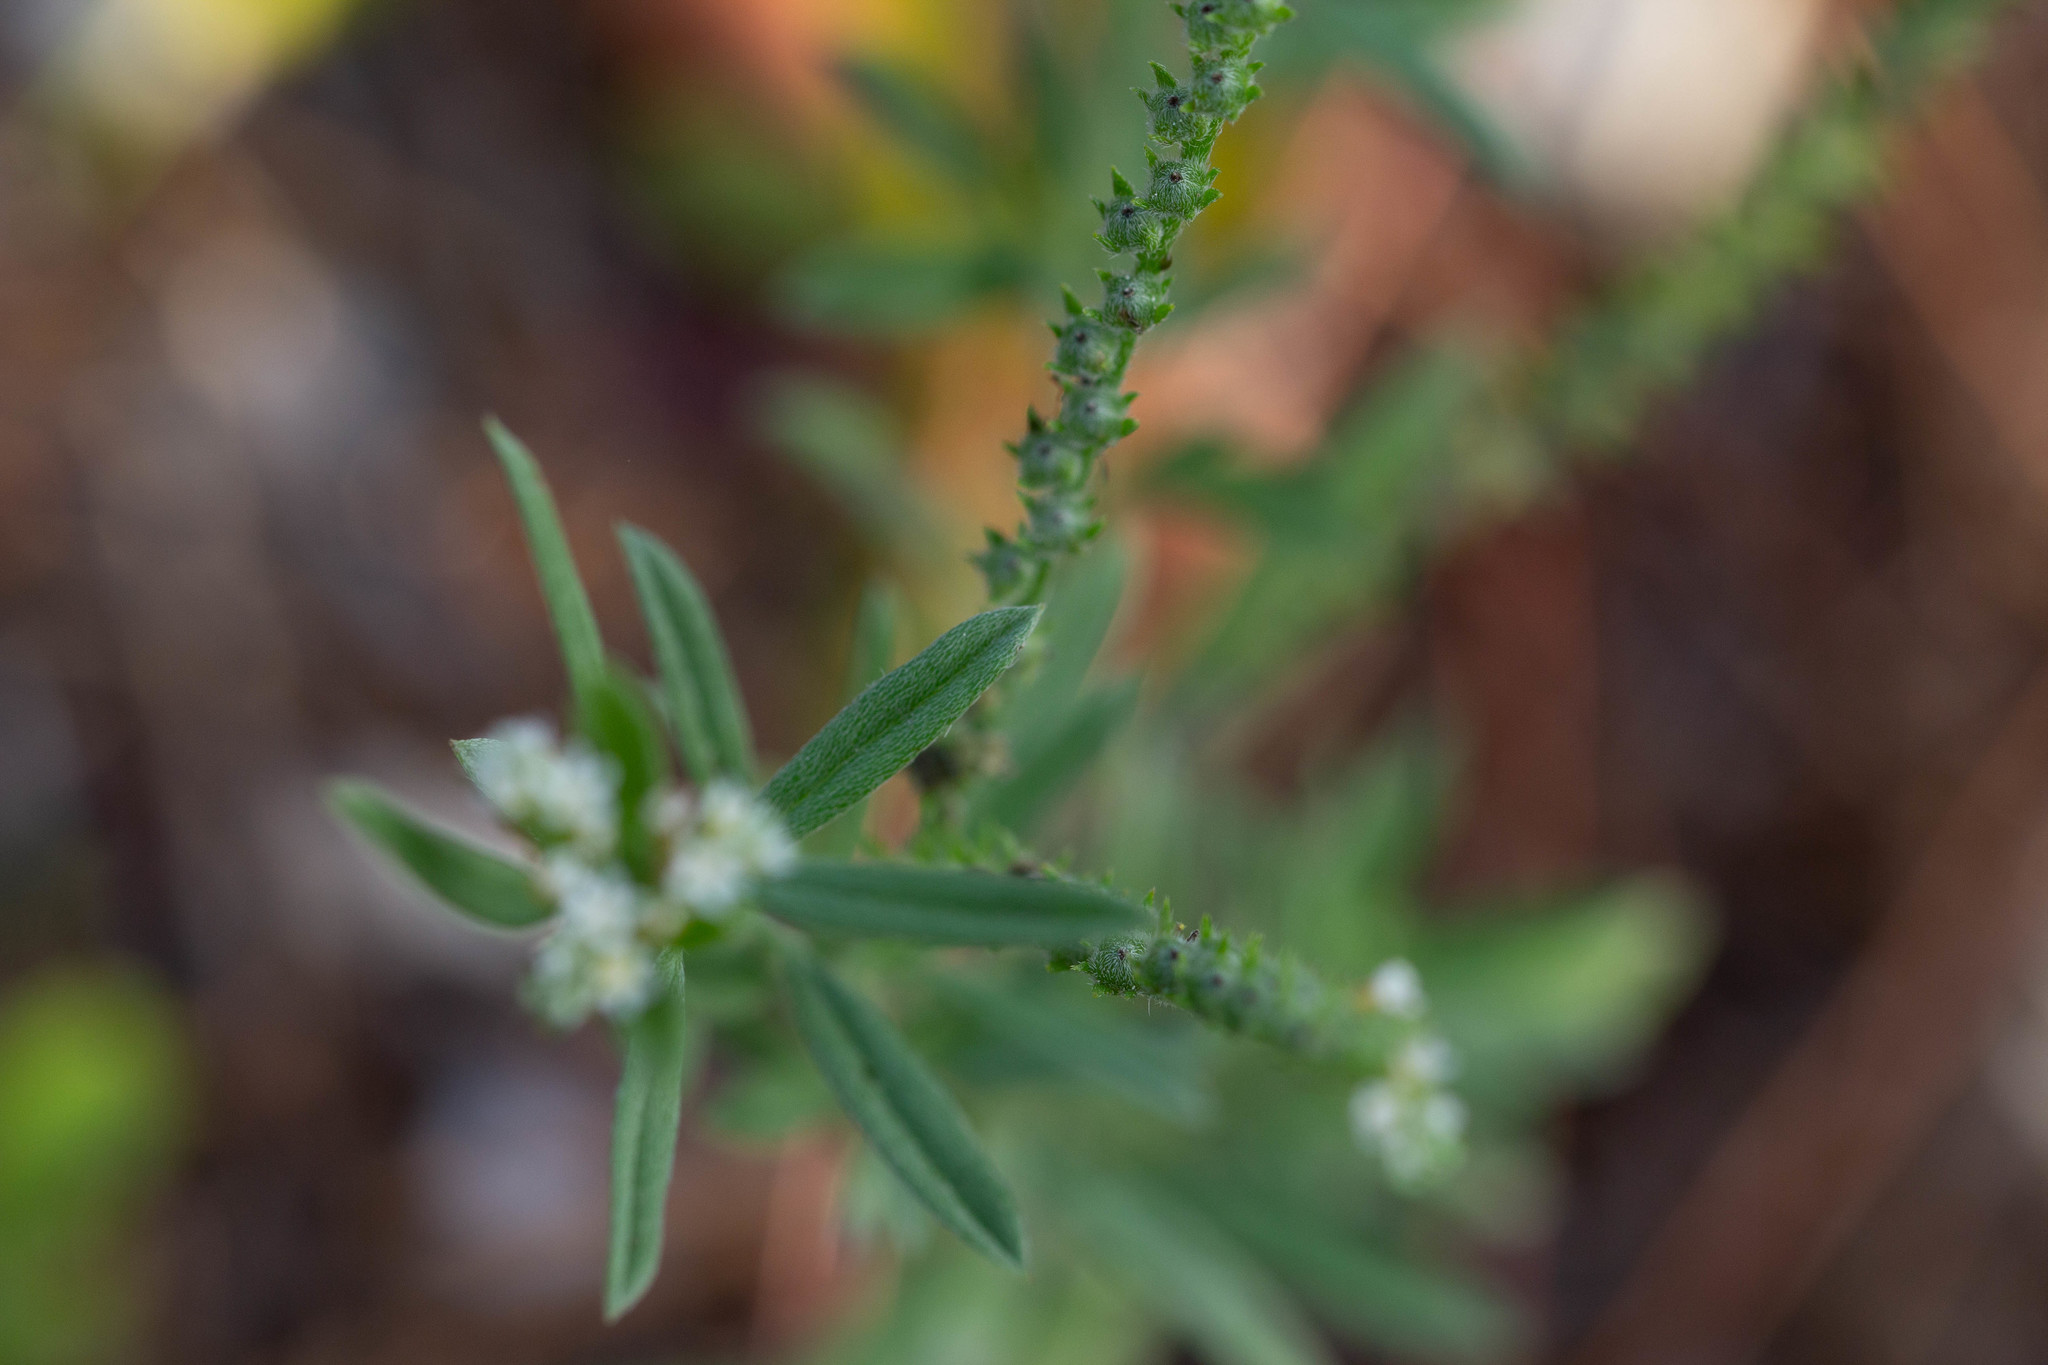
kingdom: Plantae
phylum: Tracheophyta
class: Magnoliopsida
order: Boraginales
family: Heliotropiaceae
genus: Euploca
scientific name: Euploca procumbens
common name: Fourspike heliotrope
